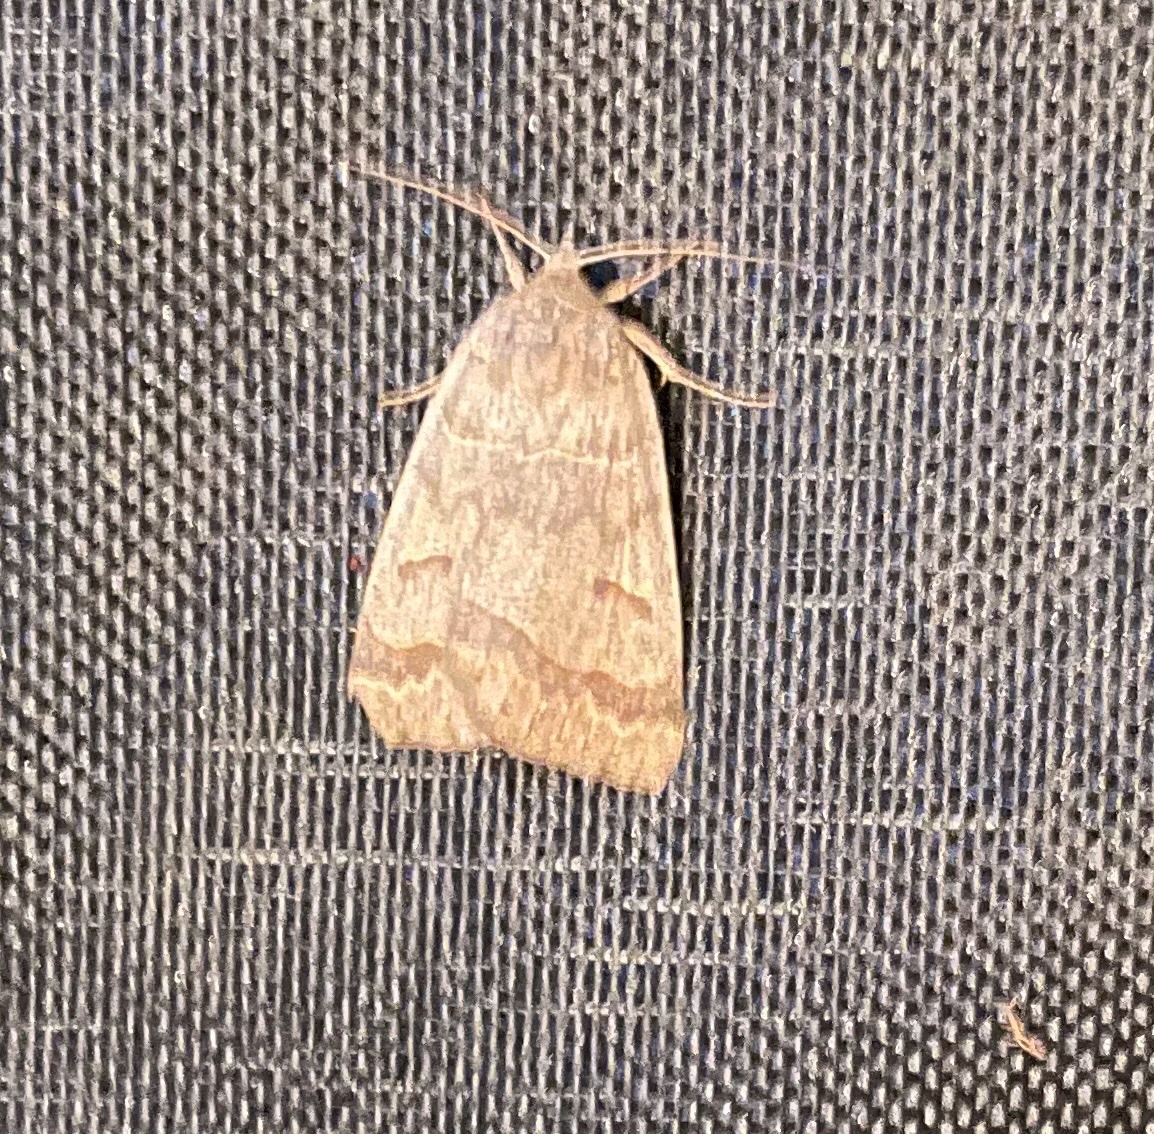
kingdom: Animalia
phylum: Arthropoda
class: Insecta
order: Lepidoptera
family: Erebidae
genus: Phoberia
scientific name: Phoberia atomaris
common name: Common oak moth
